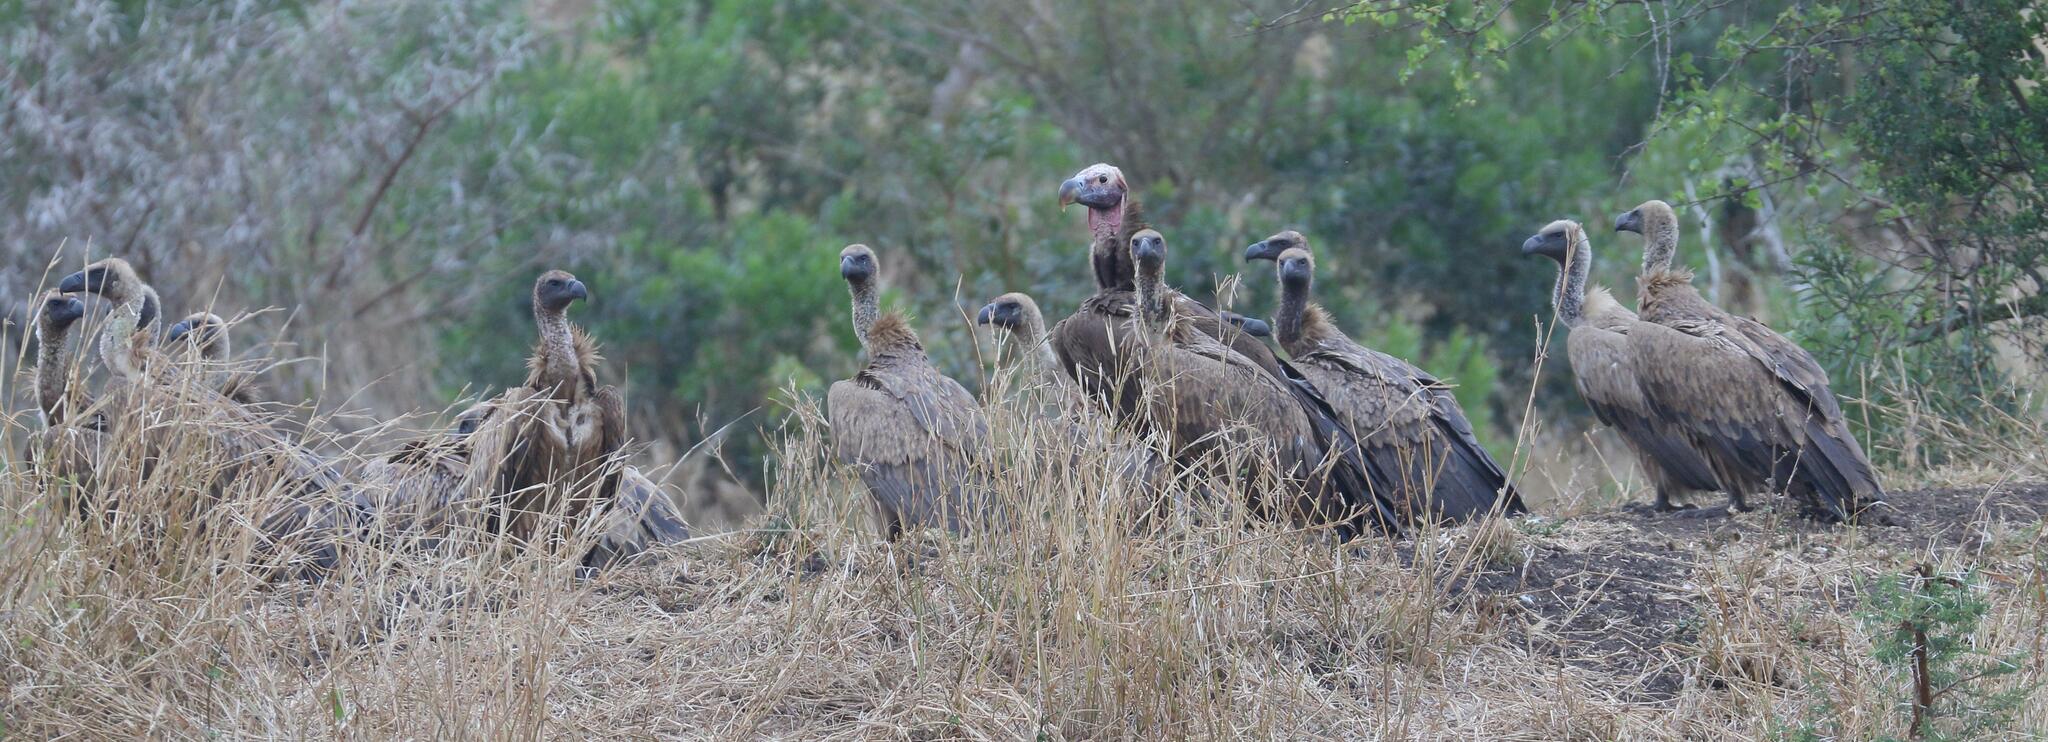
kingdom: Animalia
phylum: Chordata
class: Aves
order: Accipitriformes
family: Accipitridae
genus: Gyps
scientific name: Gyps africanus
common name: White-backed vulture
